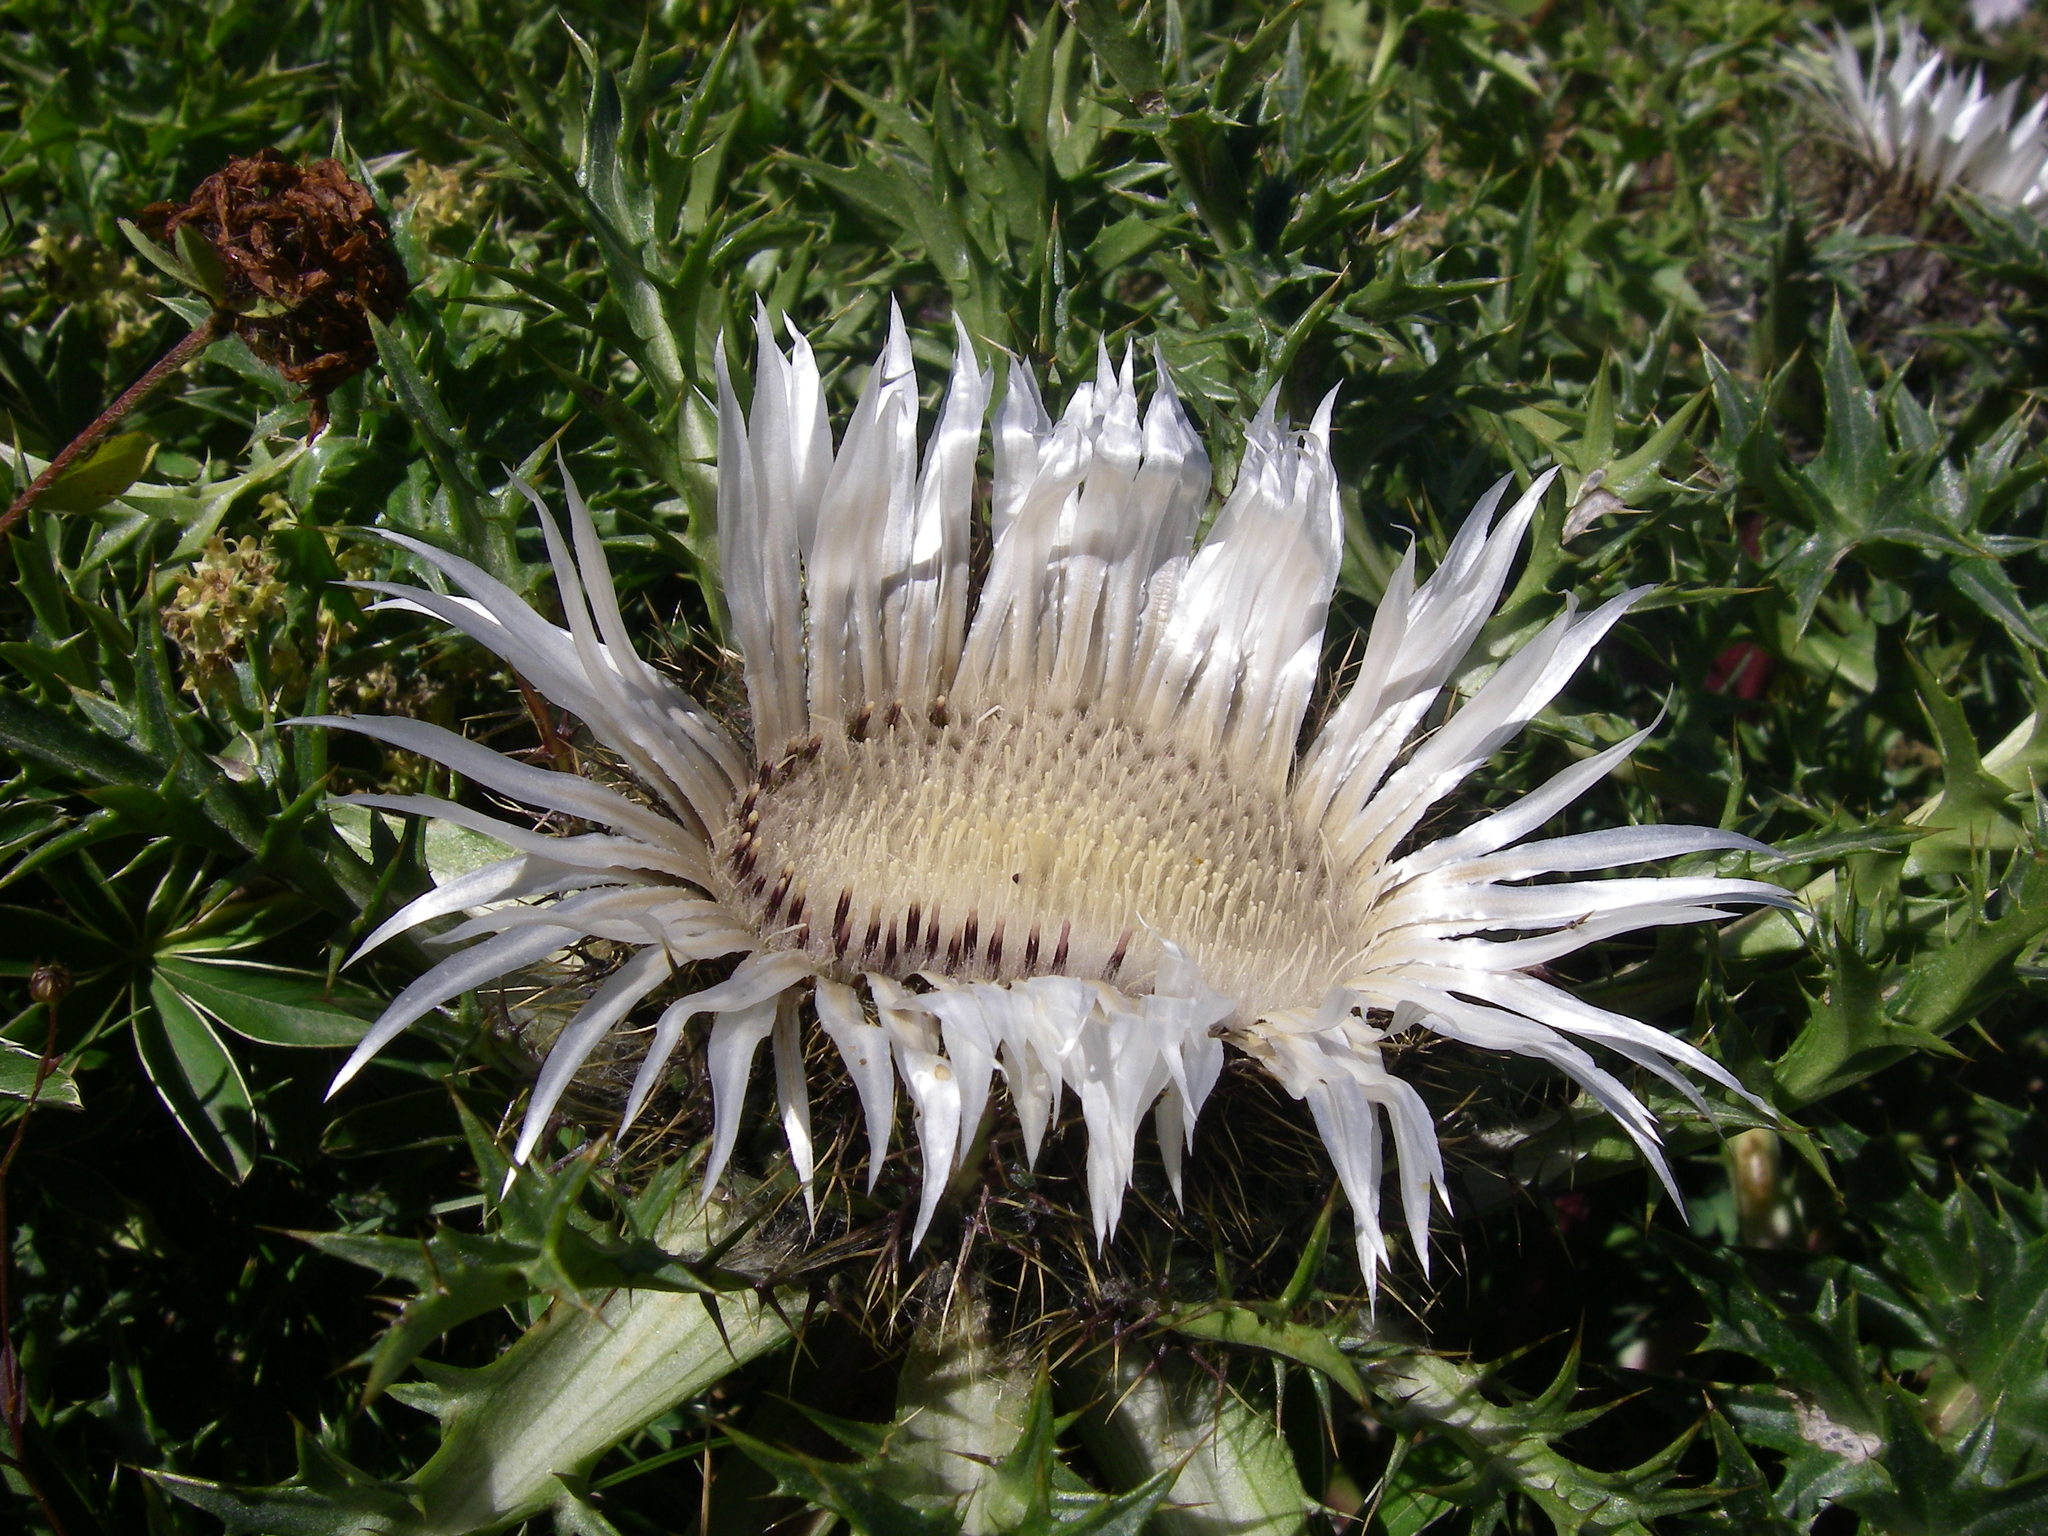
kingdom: Plantae
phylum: Tracheophyta
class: Magnoliopsida
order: Asterales
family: Asteraceae
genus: Carlina
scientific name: Carlina acaulis
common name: Stemless carline thistle
